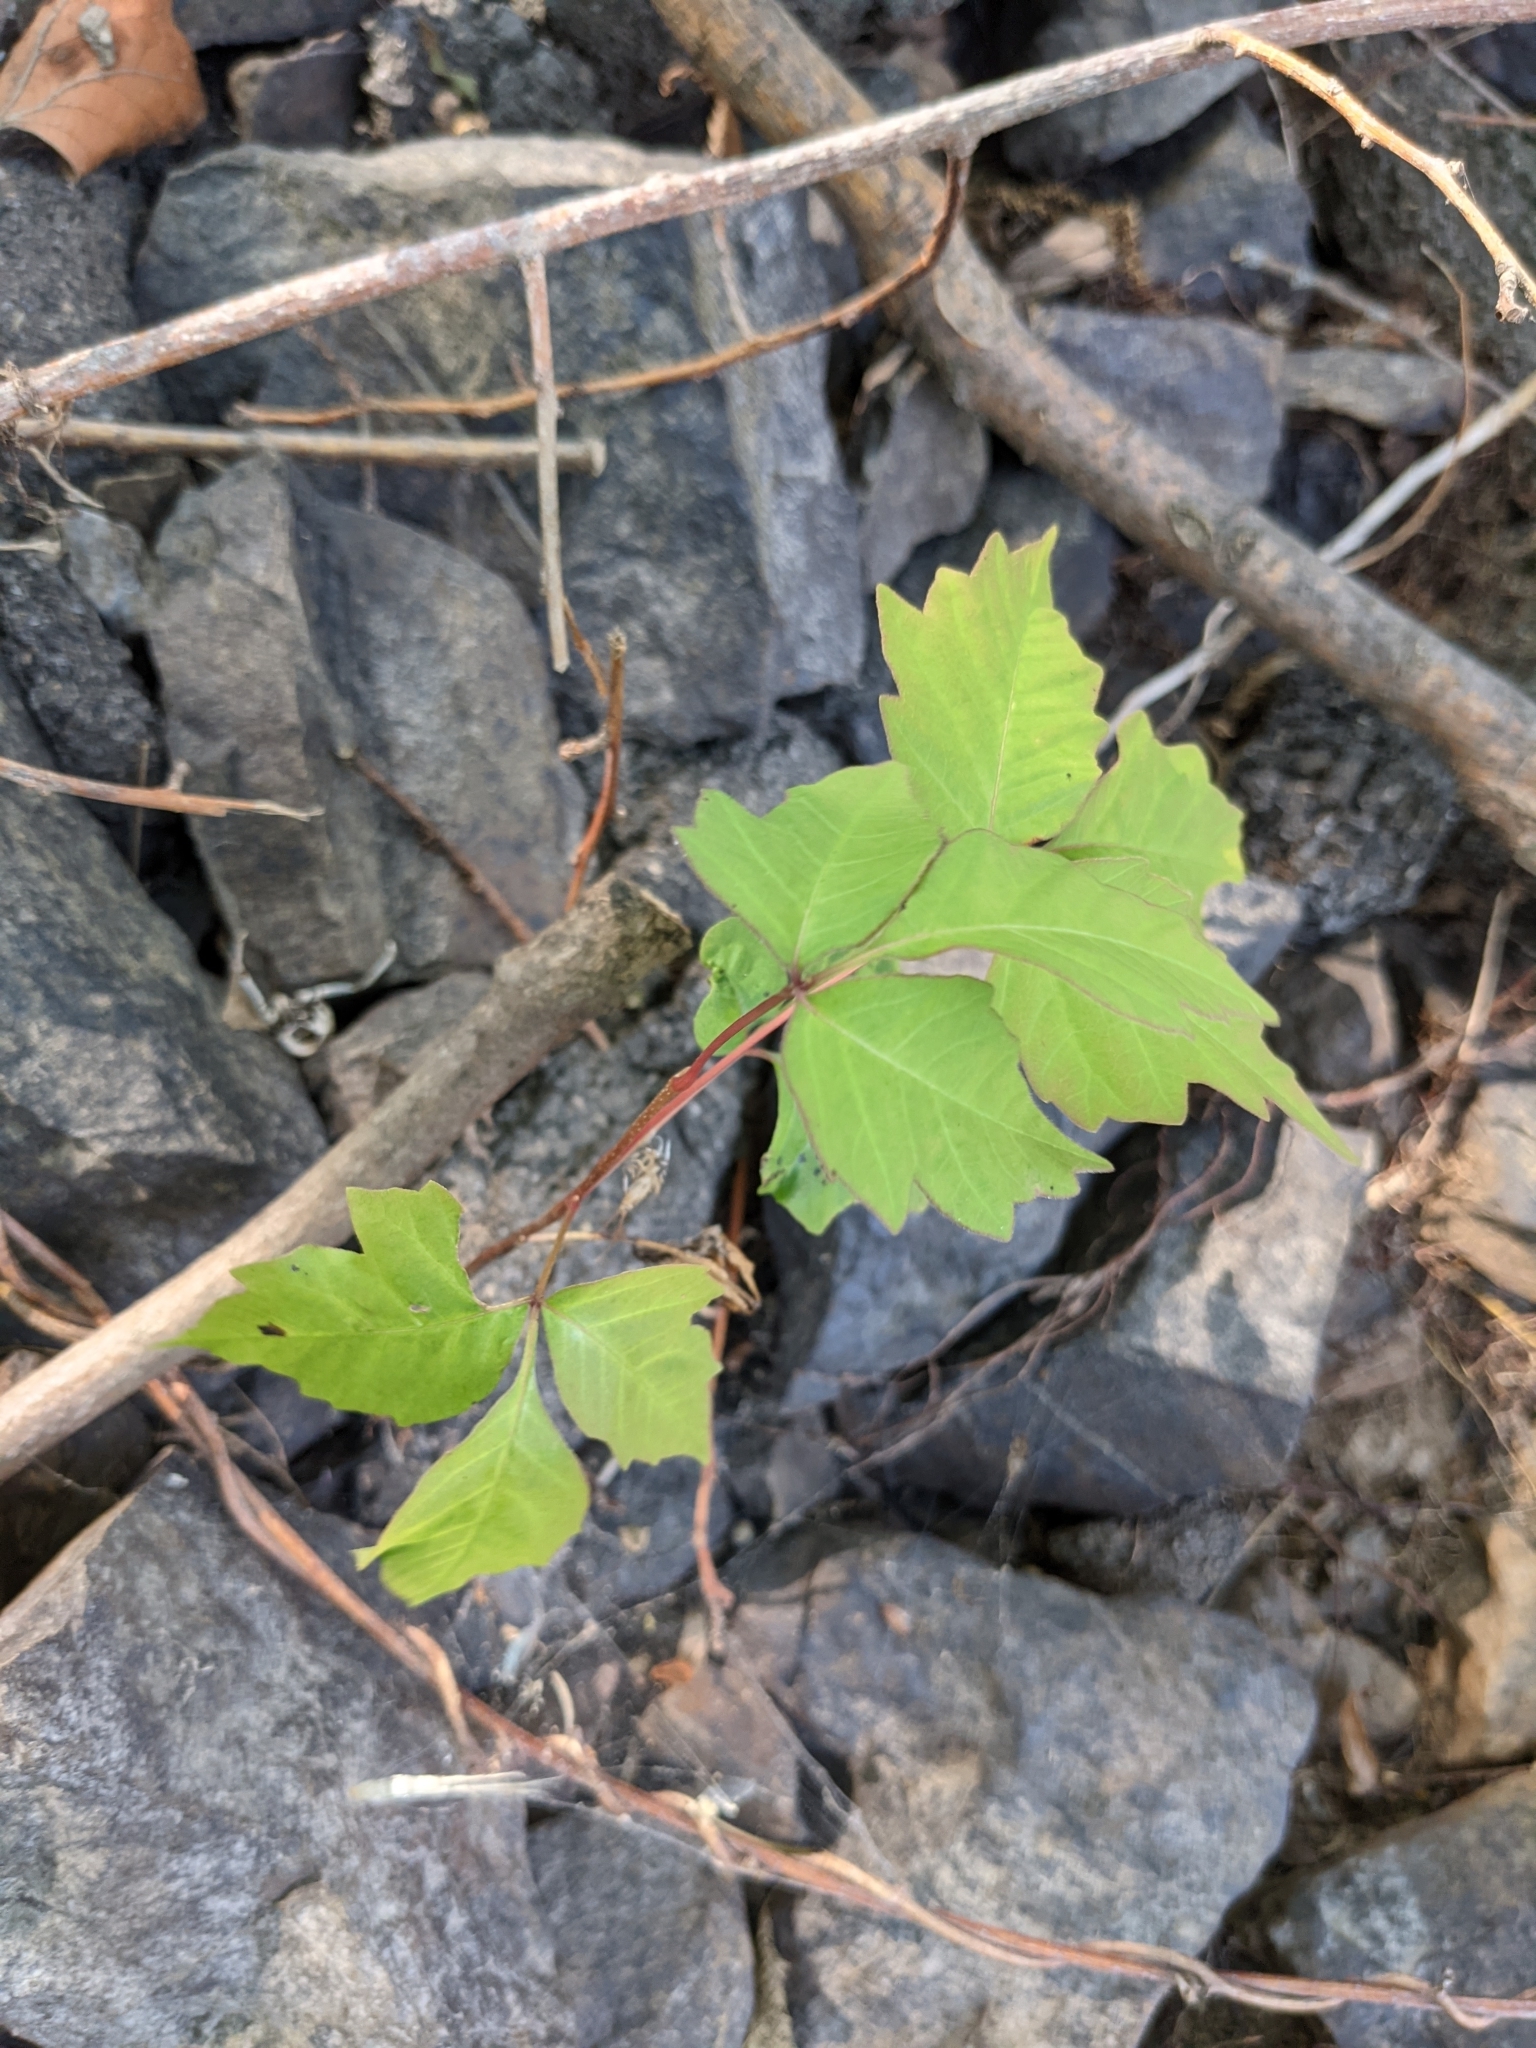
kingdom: Plantae
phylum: Tracheophyta
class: Magnoliopsida
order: Sapindales
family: Anacardiaceae
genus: Toxicodendron
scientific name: Toxicodendron radicans
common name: Poison ivy
